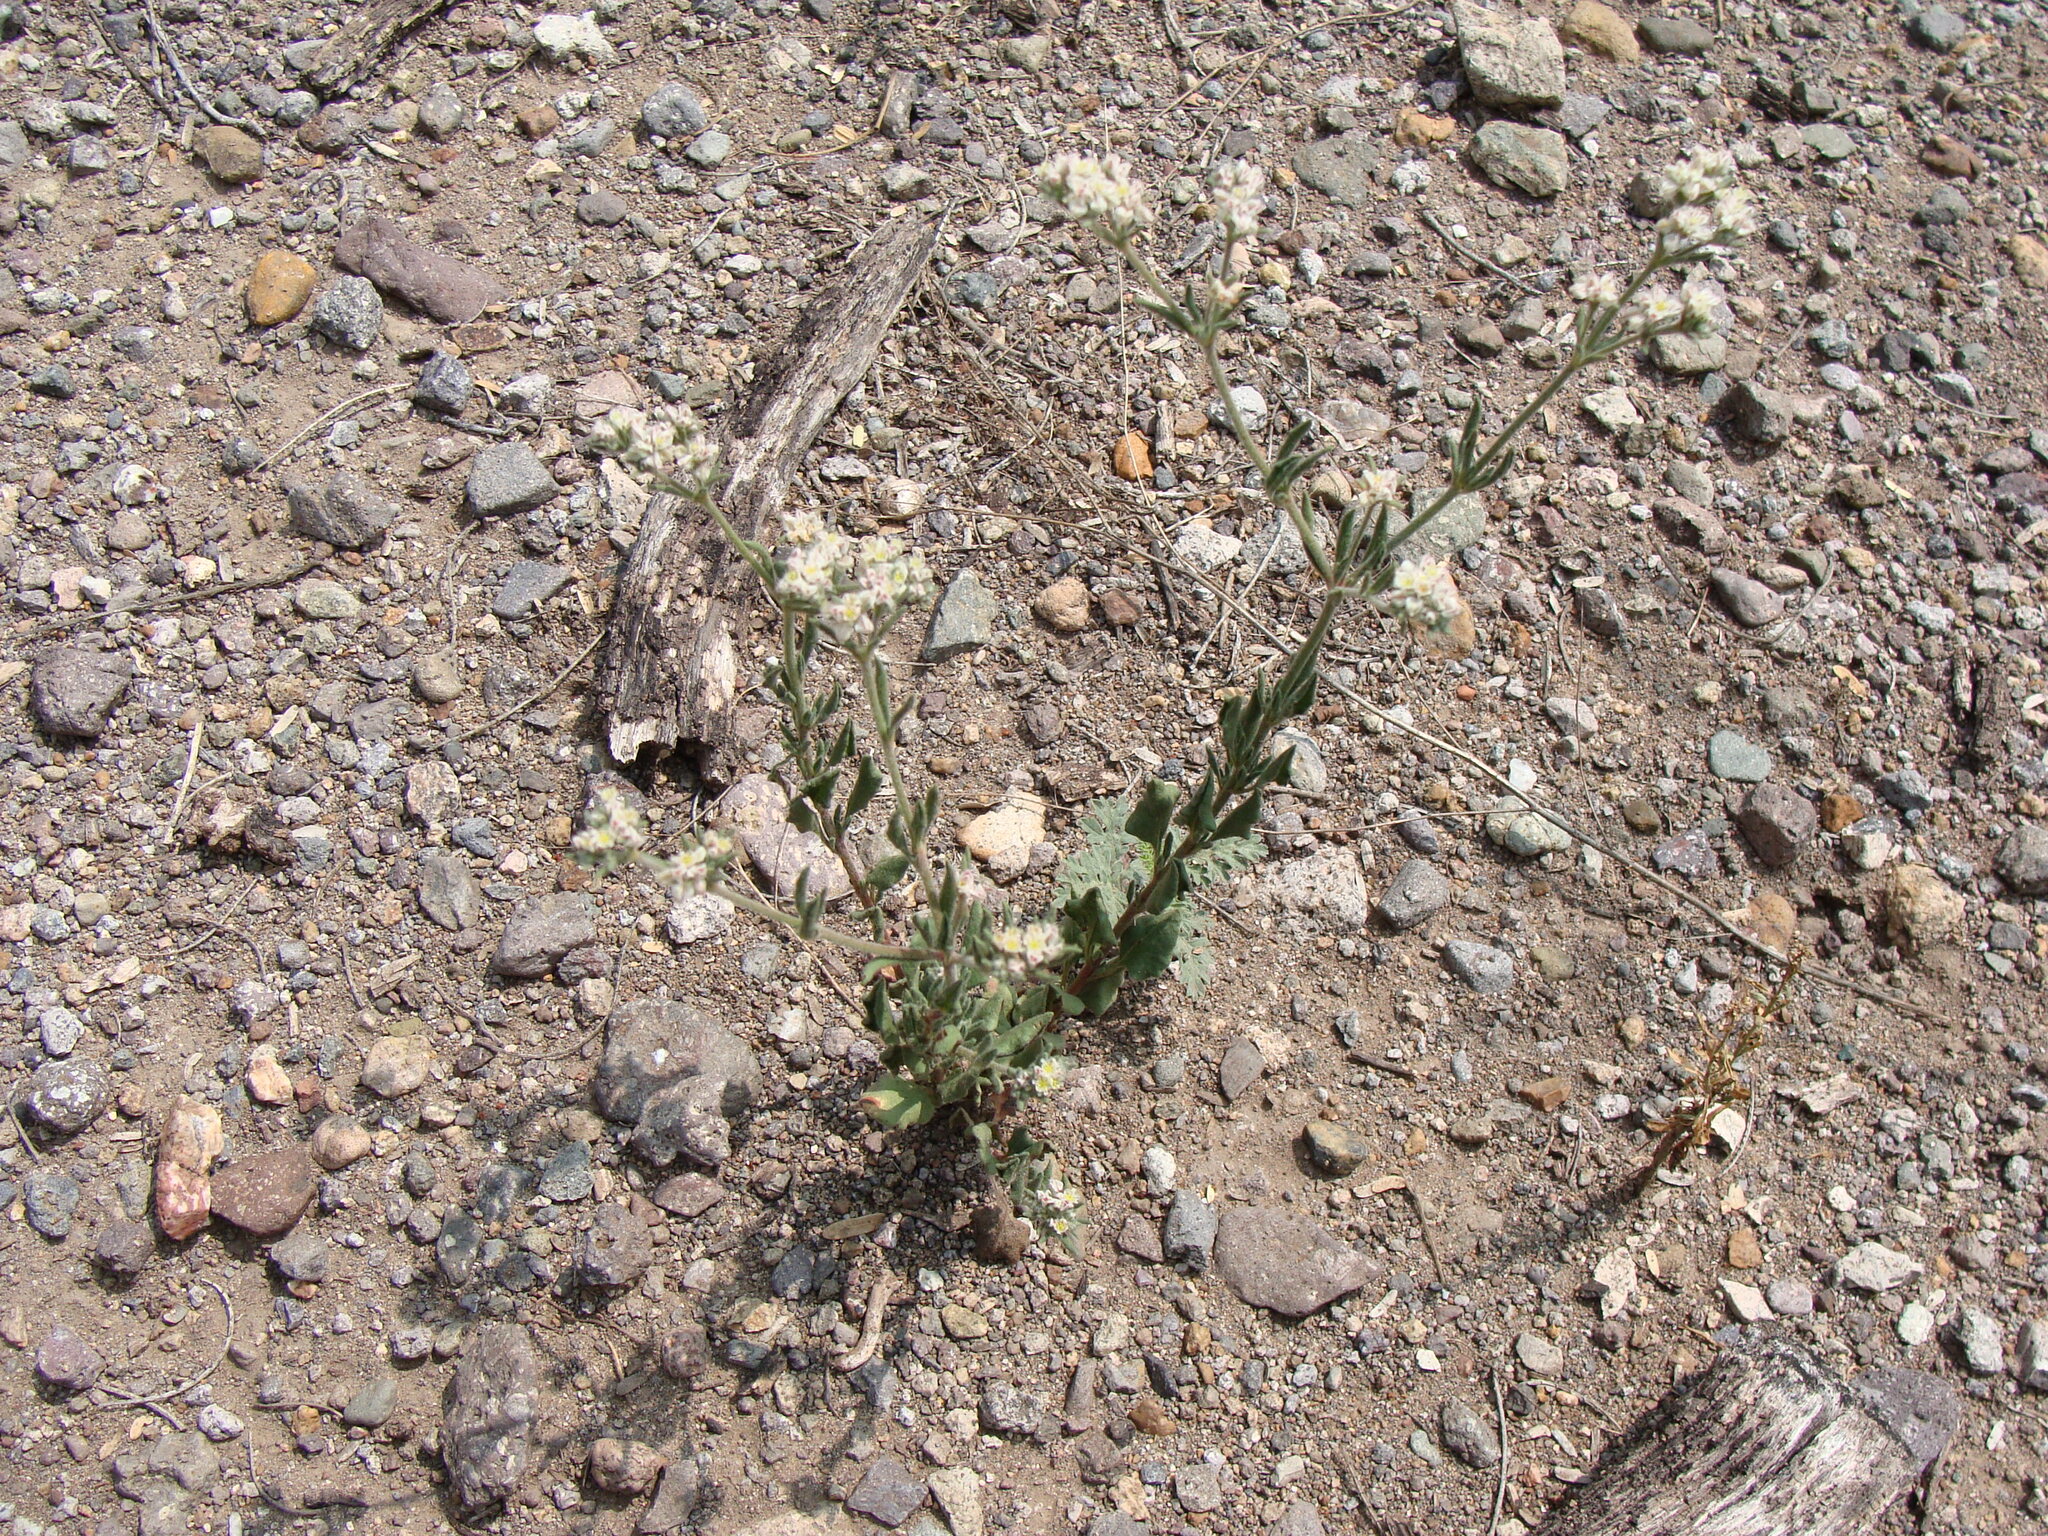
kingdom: Plantae
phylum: Tracheophyta
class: Magnoliopsida
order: Caryophyllales
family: Polygonaceae
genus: Eriogonum
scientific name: Eriogonum abertianum
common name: Abert's wild buckwheat
